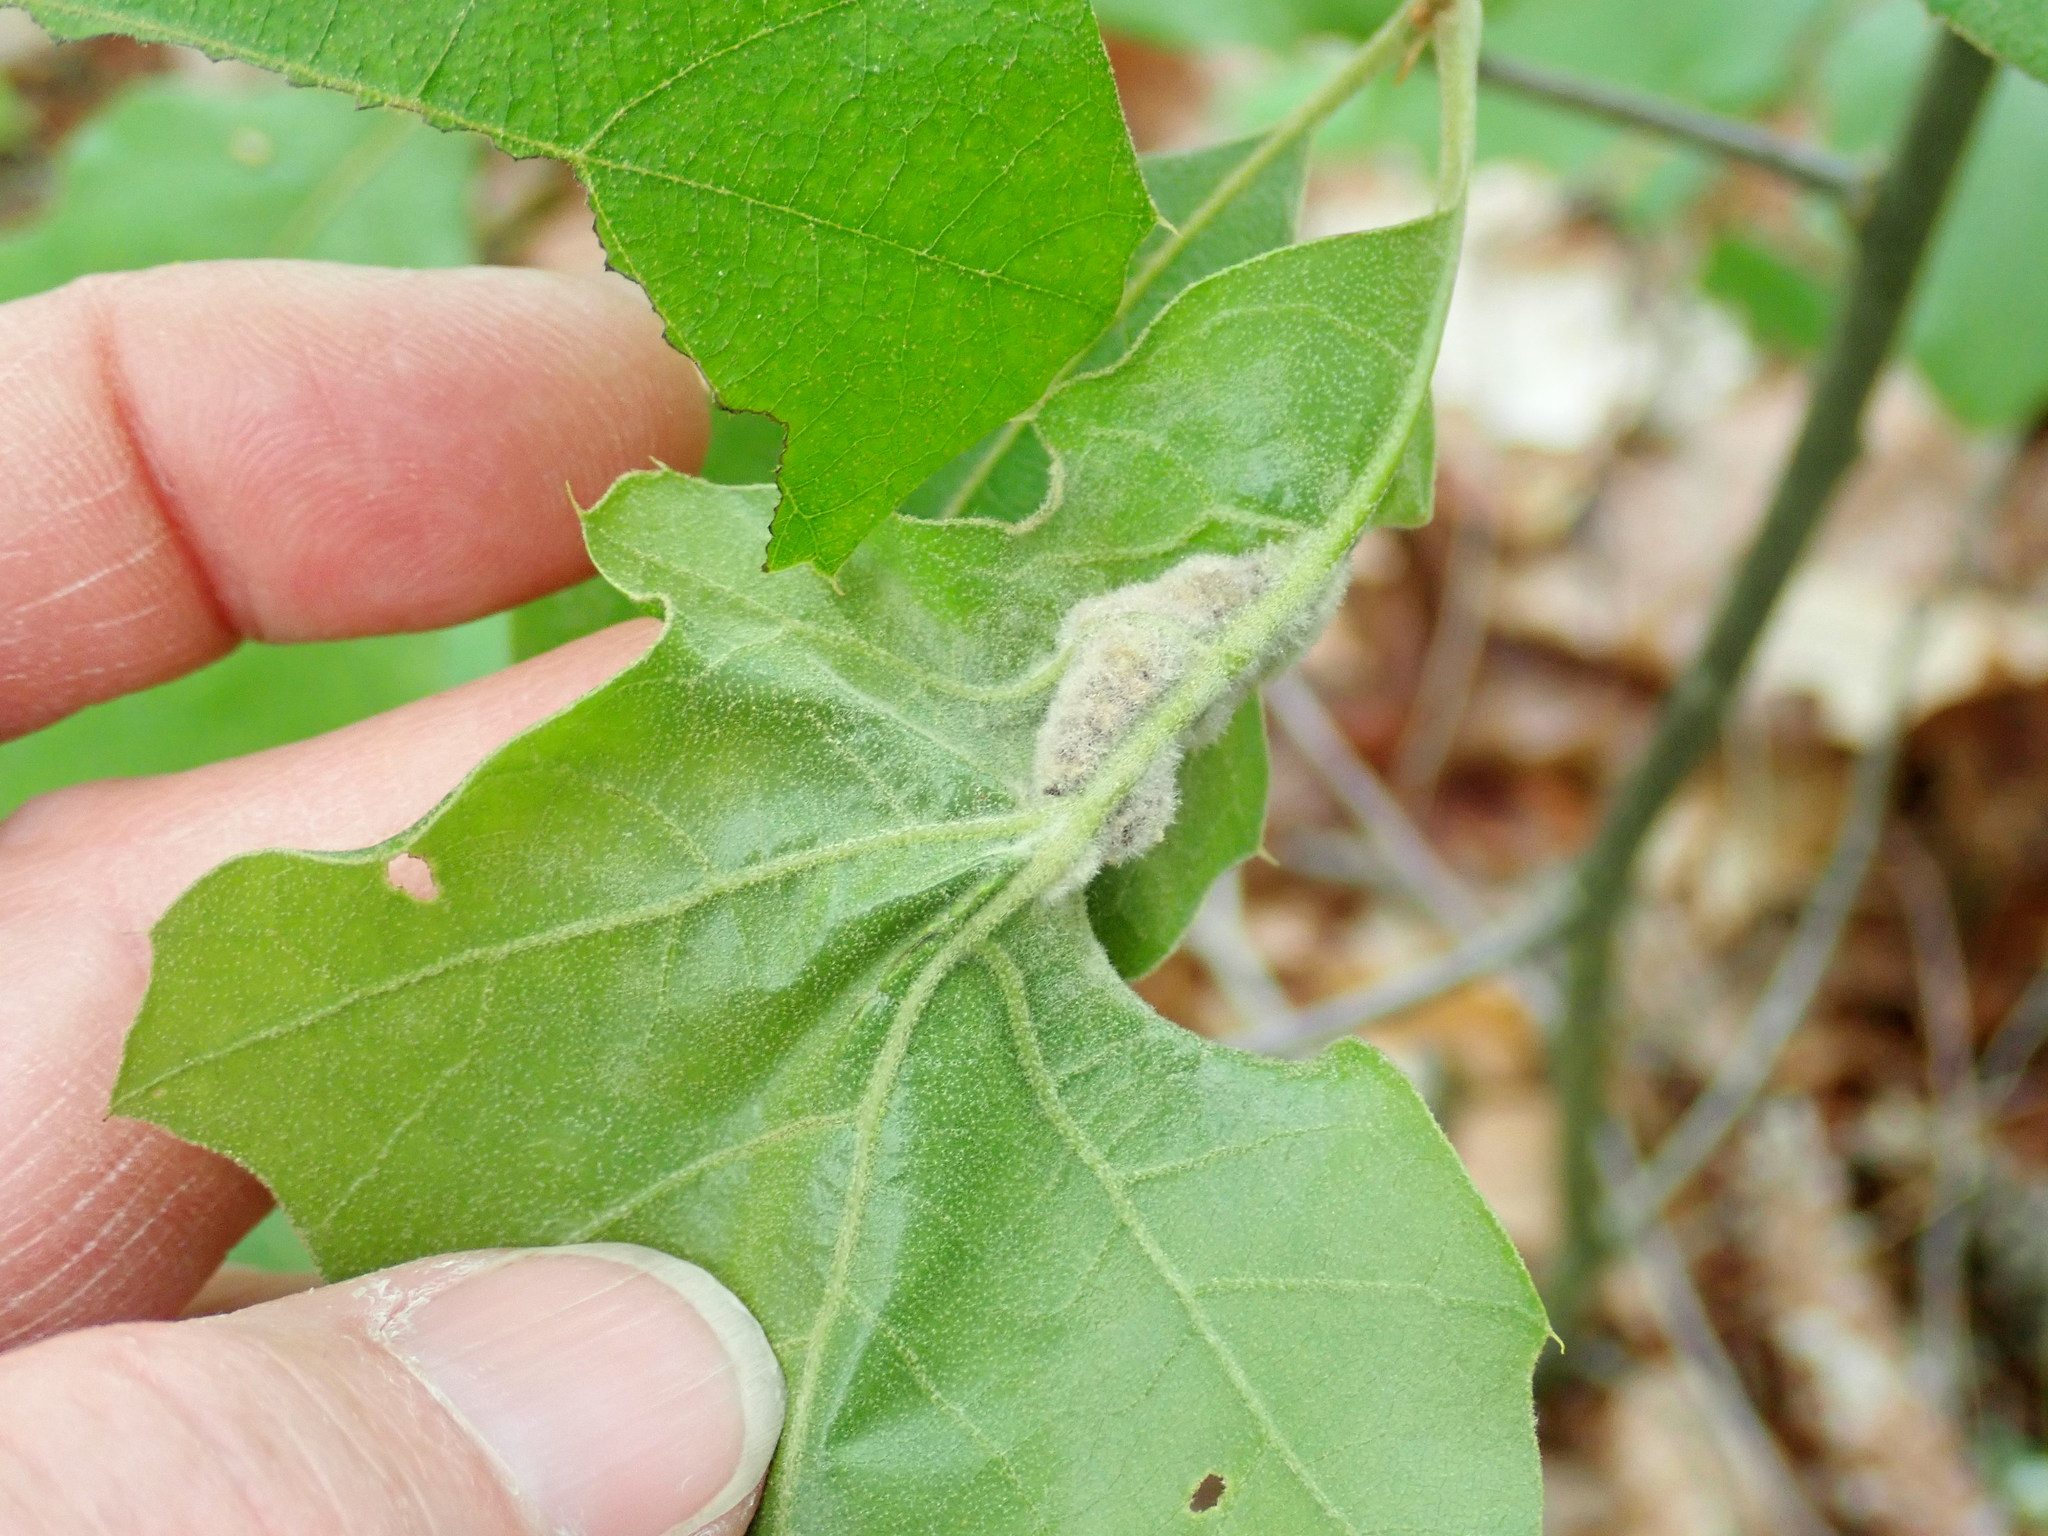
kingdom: Animalia
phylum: Arthropoda
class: Insecta
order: Diptera
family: Cecidomyiidae
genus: Macrodiplosis
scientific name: Macrodiplosis niveipila
